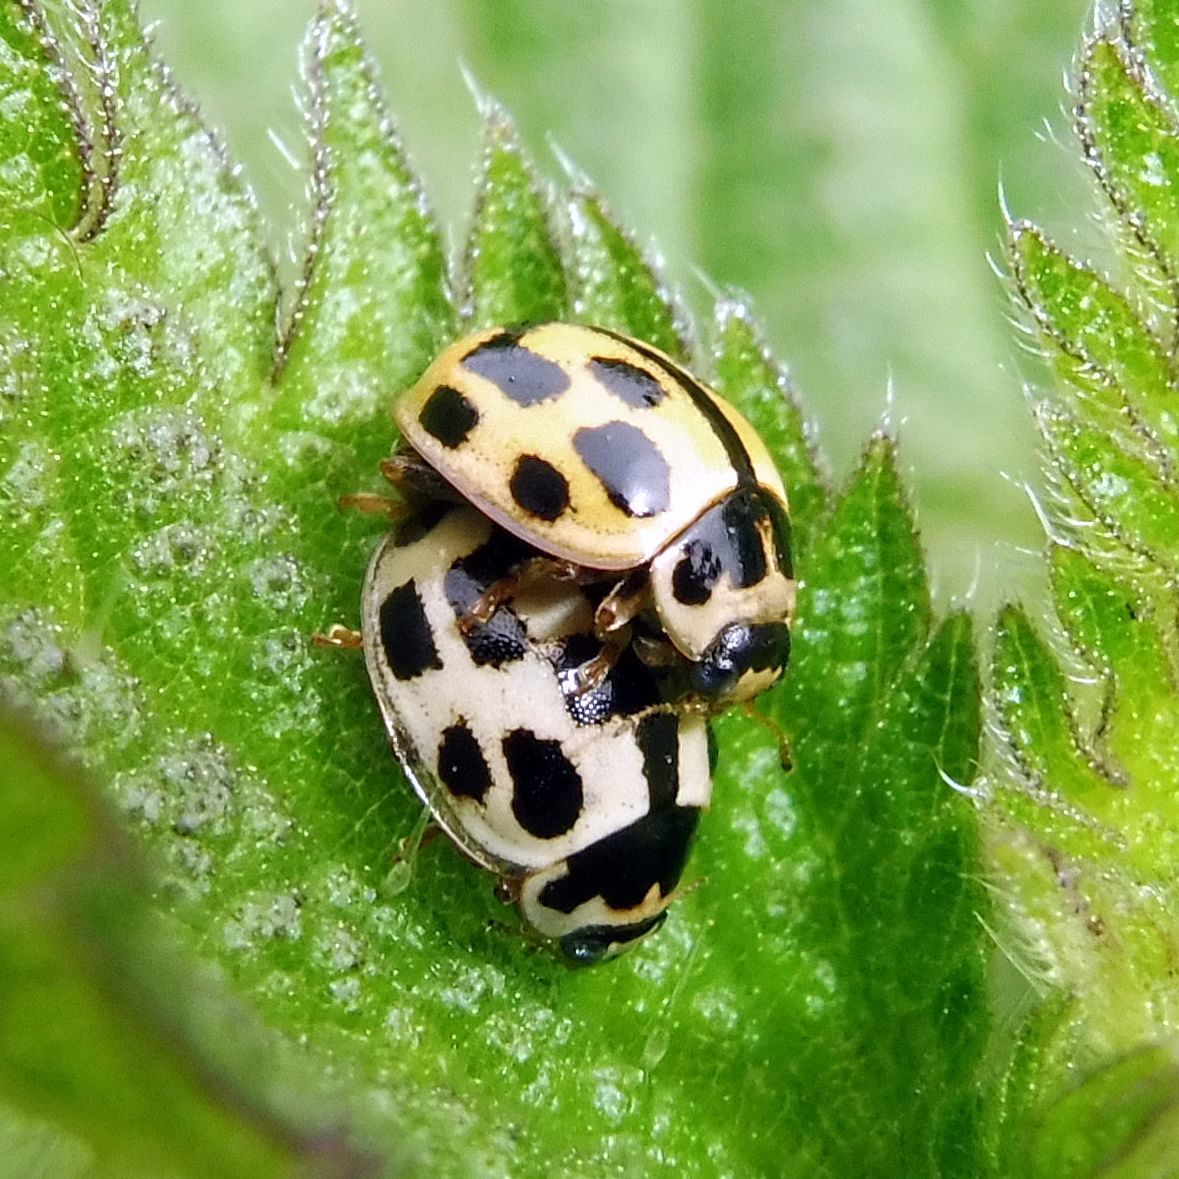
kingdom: Animalia
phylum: Arthropoda
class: Insecta
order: Coleoptera
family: Coccinellidae
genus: Propylaea
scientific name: Propylaea quatuordecimpunctata
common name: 14-spotted ladybird beetle
